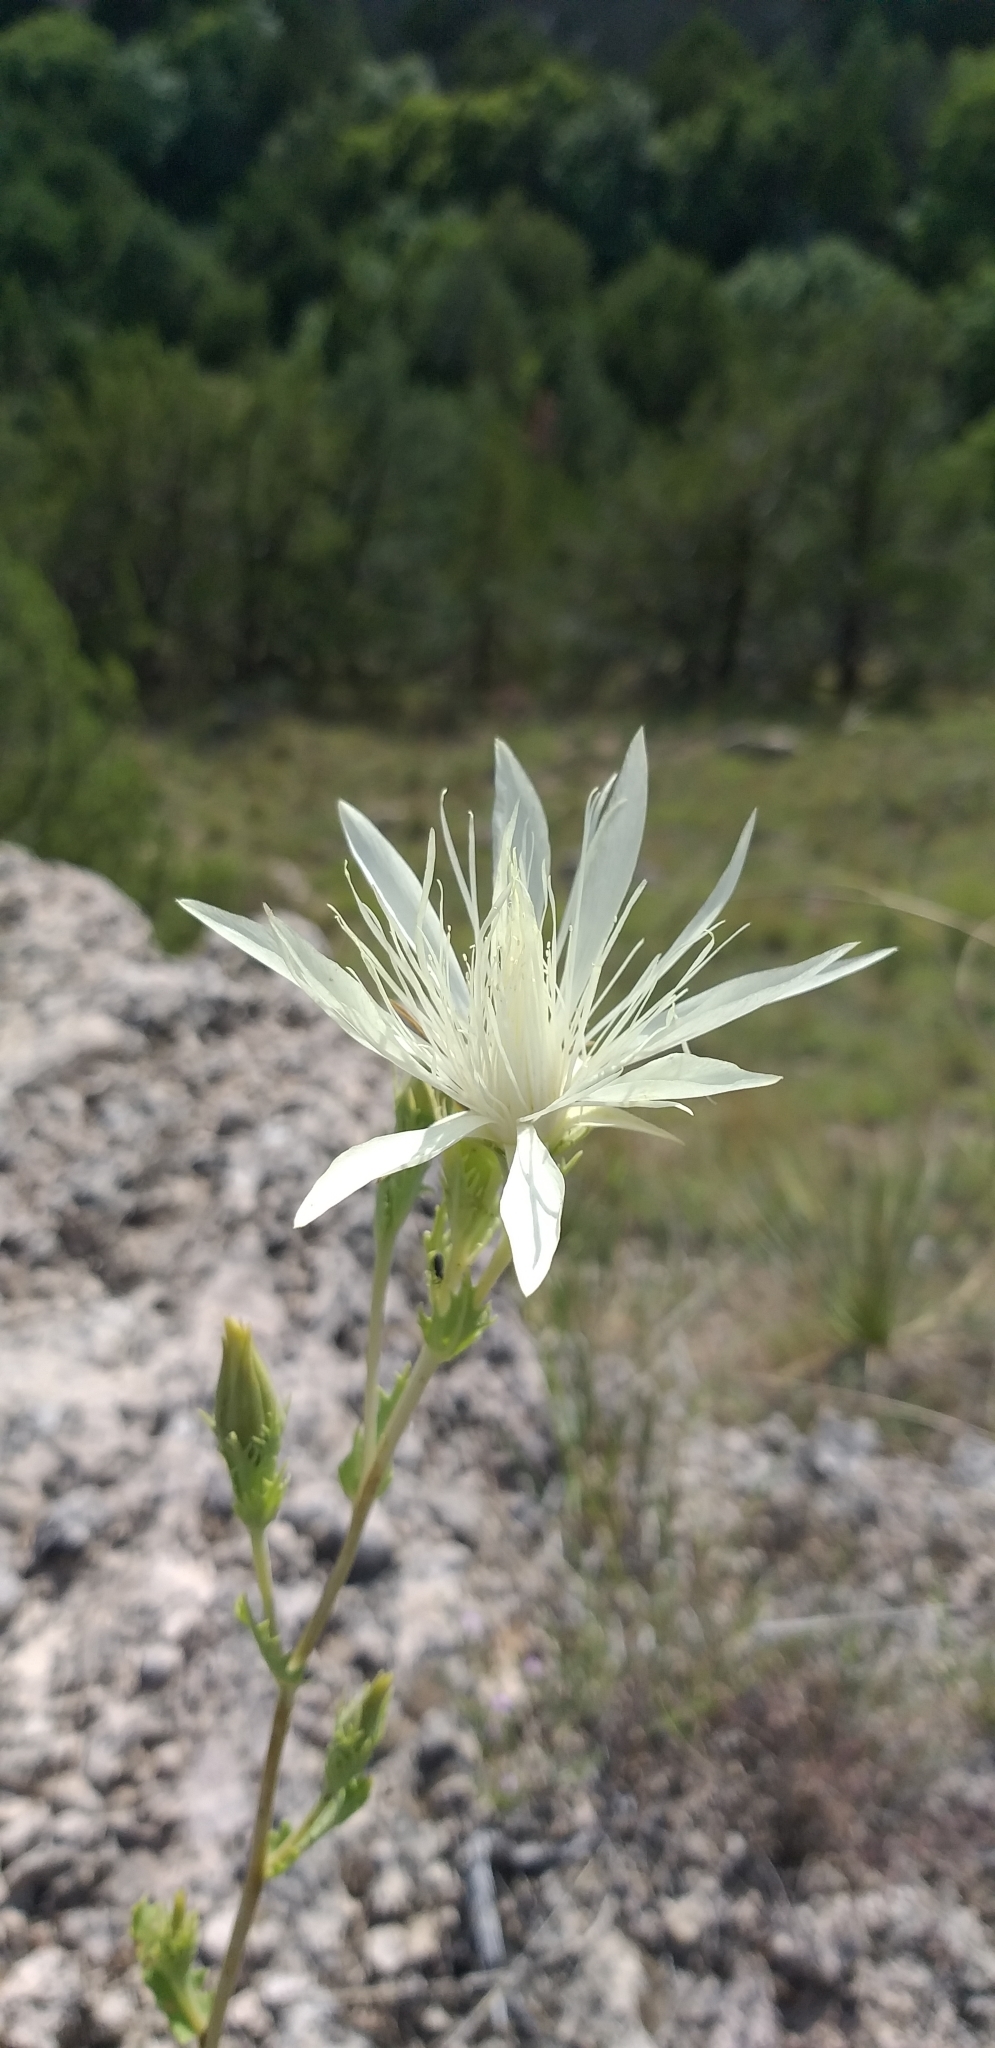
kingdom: Plantae
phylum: Tracheophyta
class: Magnoliopsida
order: Cornales
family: Loasaceae
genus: Mentzelia
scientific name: Mentzelia nuda
